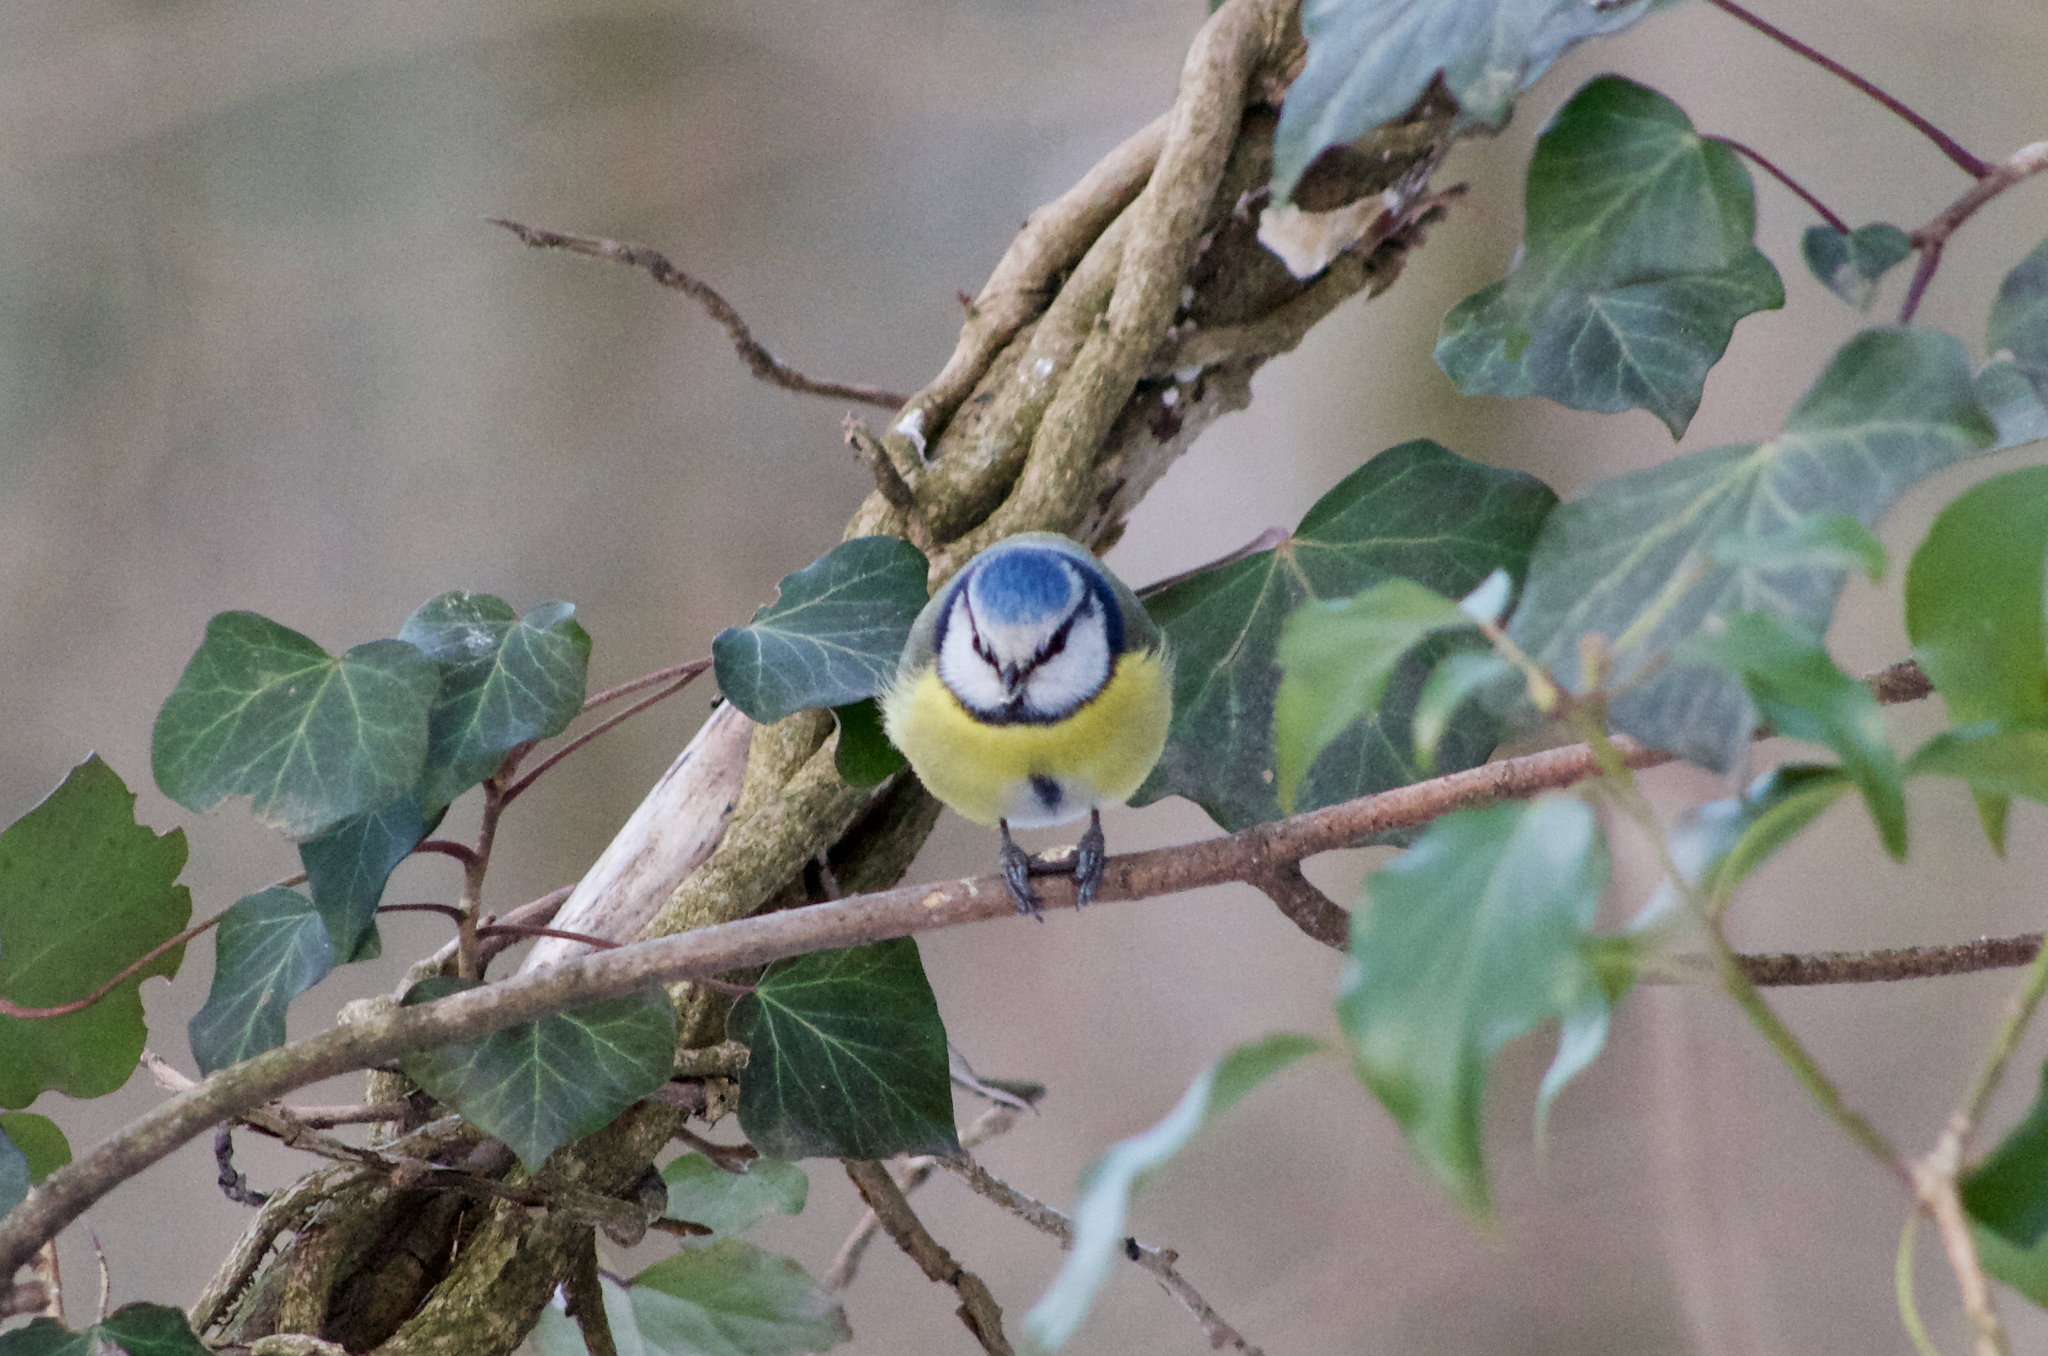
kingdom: Animalia
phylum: Chordata
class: Aves
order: Passeriformes
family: Paridae
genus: Cyanistes
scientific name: Cyanistes caeruleus
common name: Eurasian blue tit
